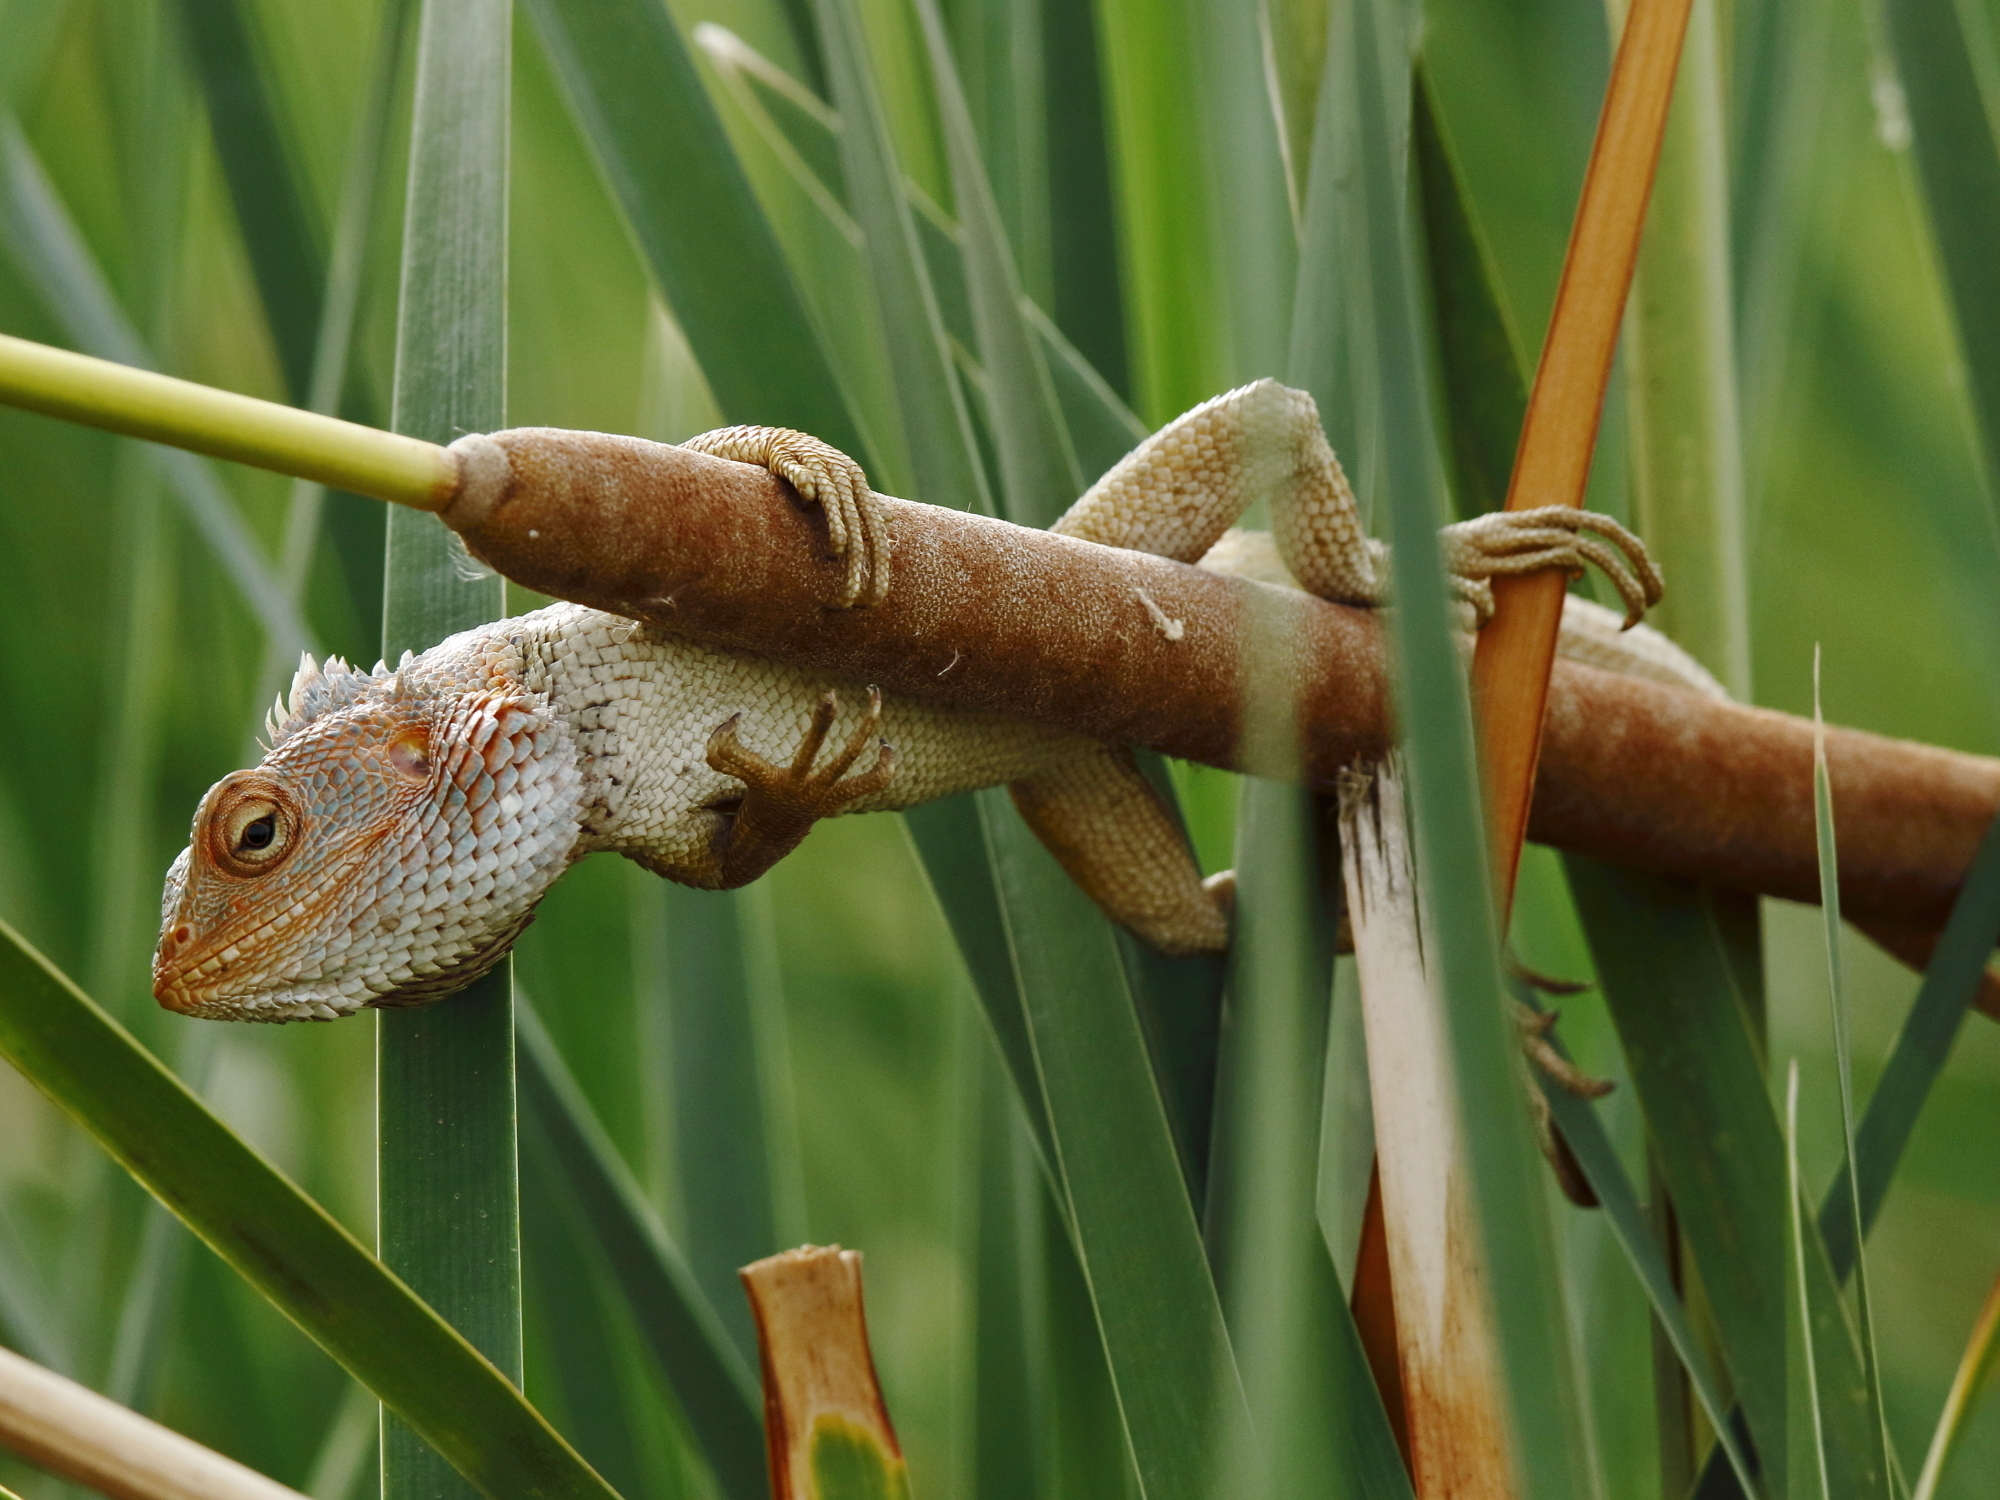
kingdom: Animalia
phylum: Chordata
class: Squamata
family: Agamidae
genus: Calotes
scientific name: Calotes versicolor
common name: Oriental garden lizard
